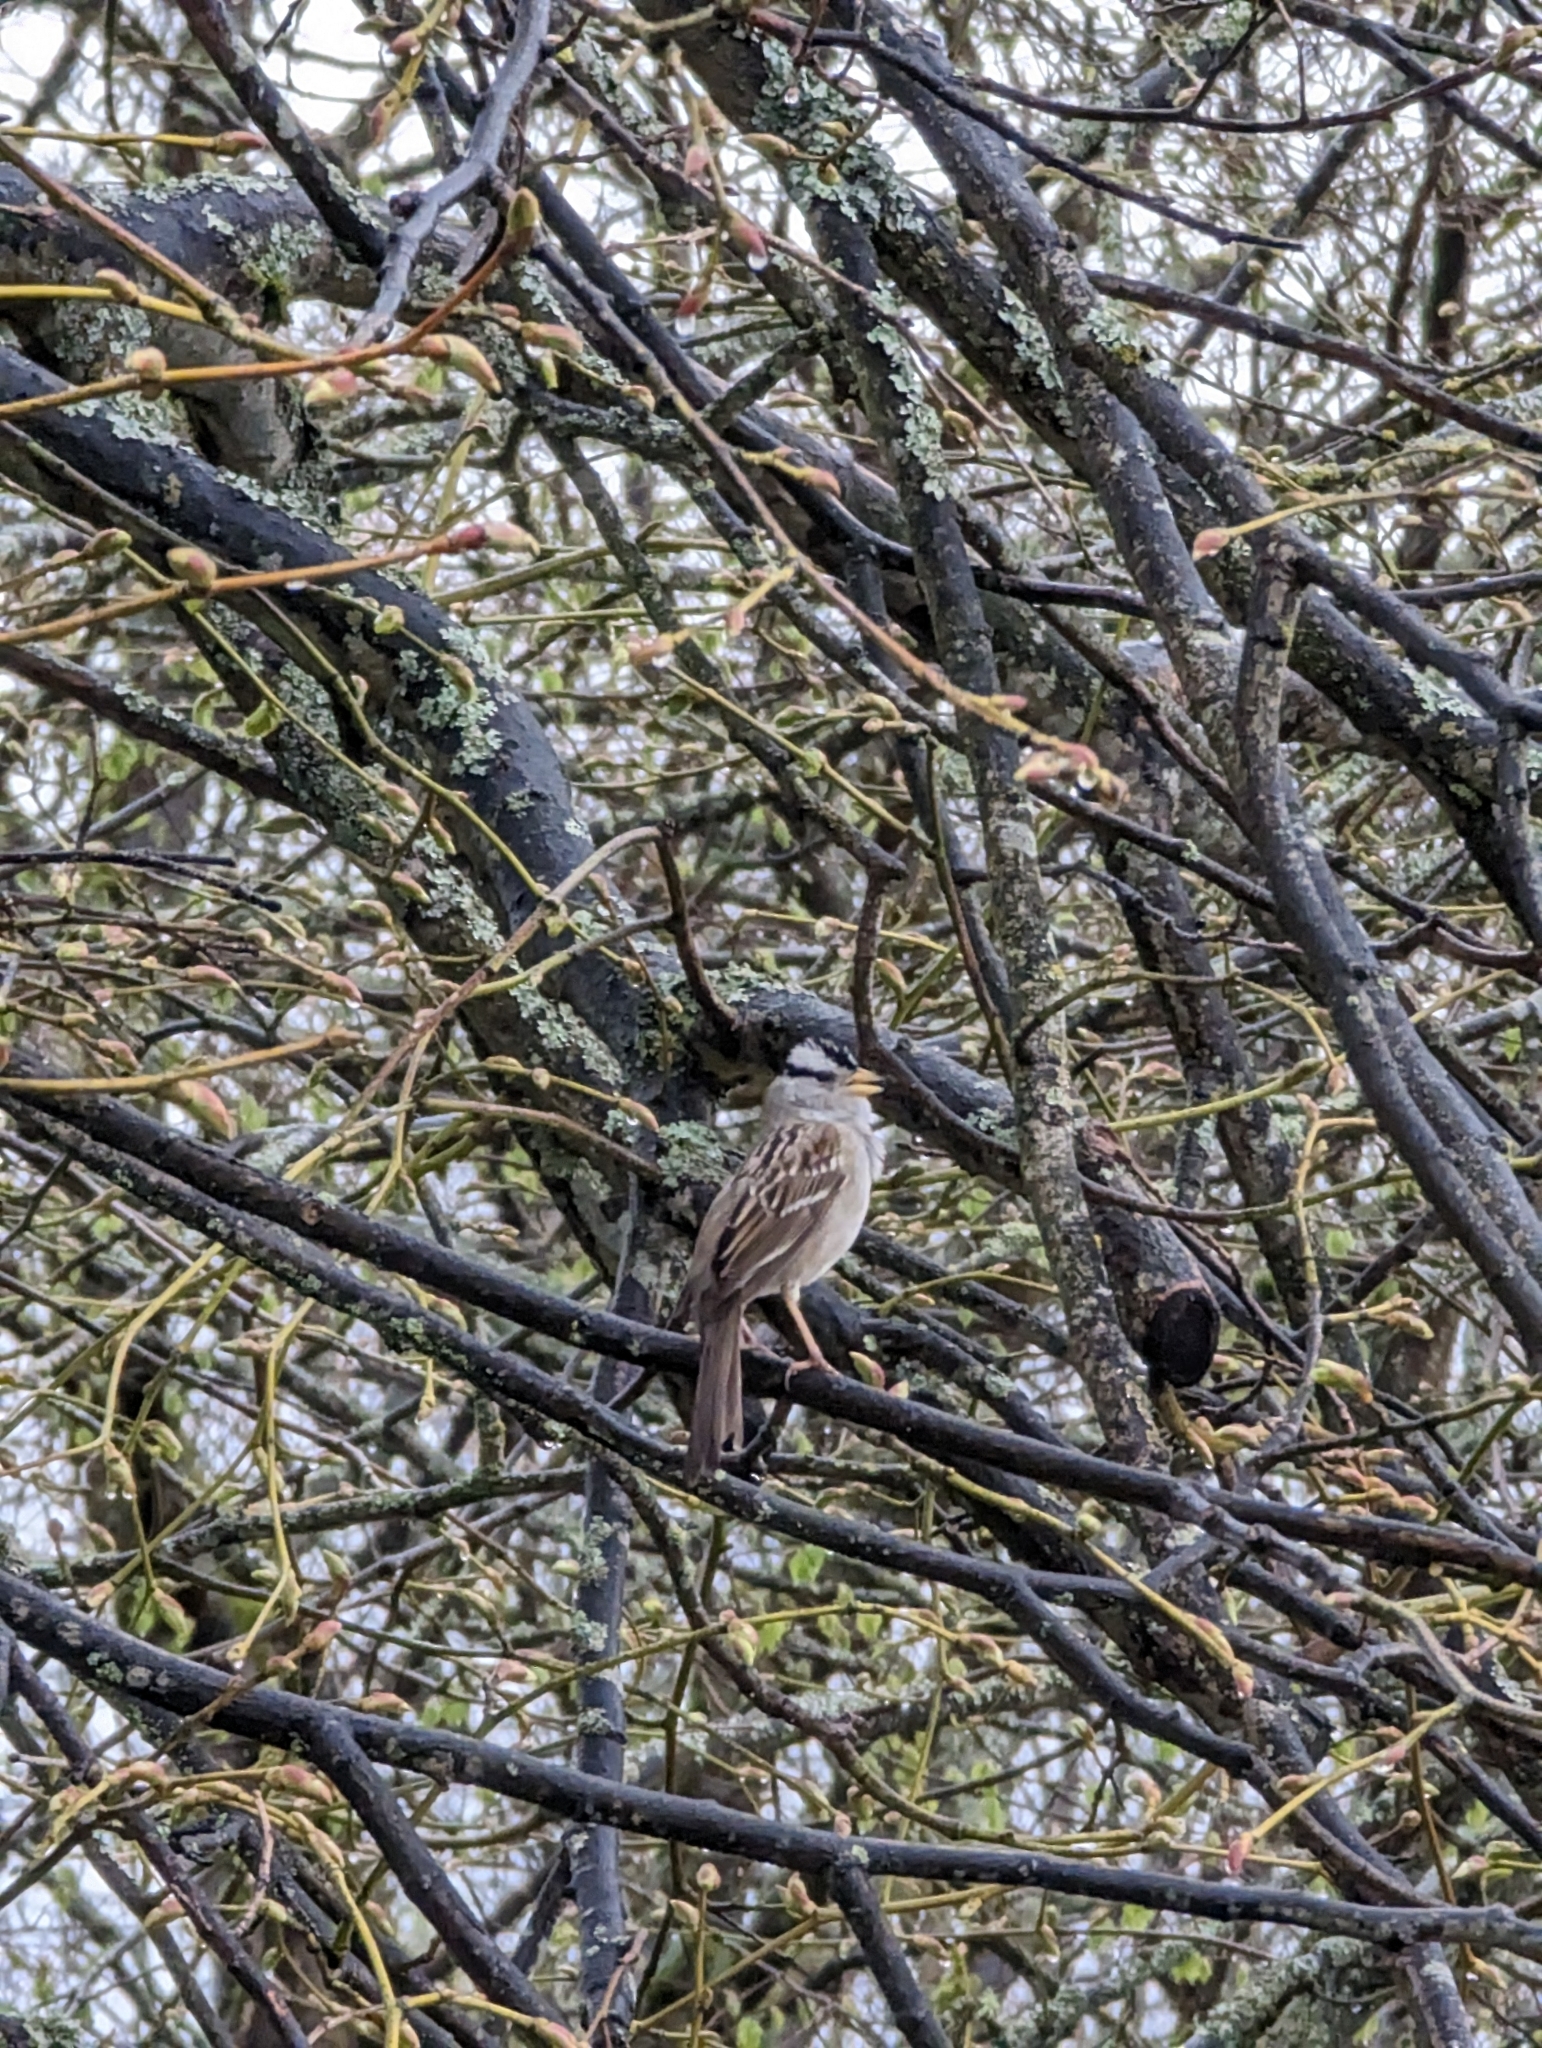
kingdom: Animalia
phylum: Chordata
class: Aves
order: Passeriformes
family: Passerellidae
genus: Zonotrichia
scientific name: Zonotrichia leucophrys
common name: White-crowned sparrow
